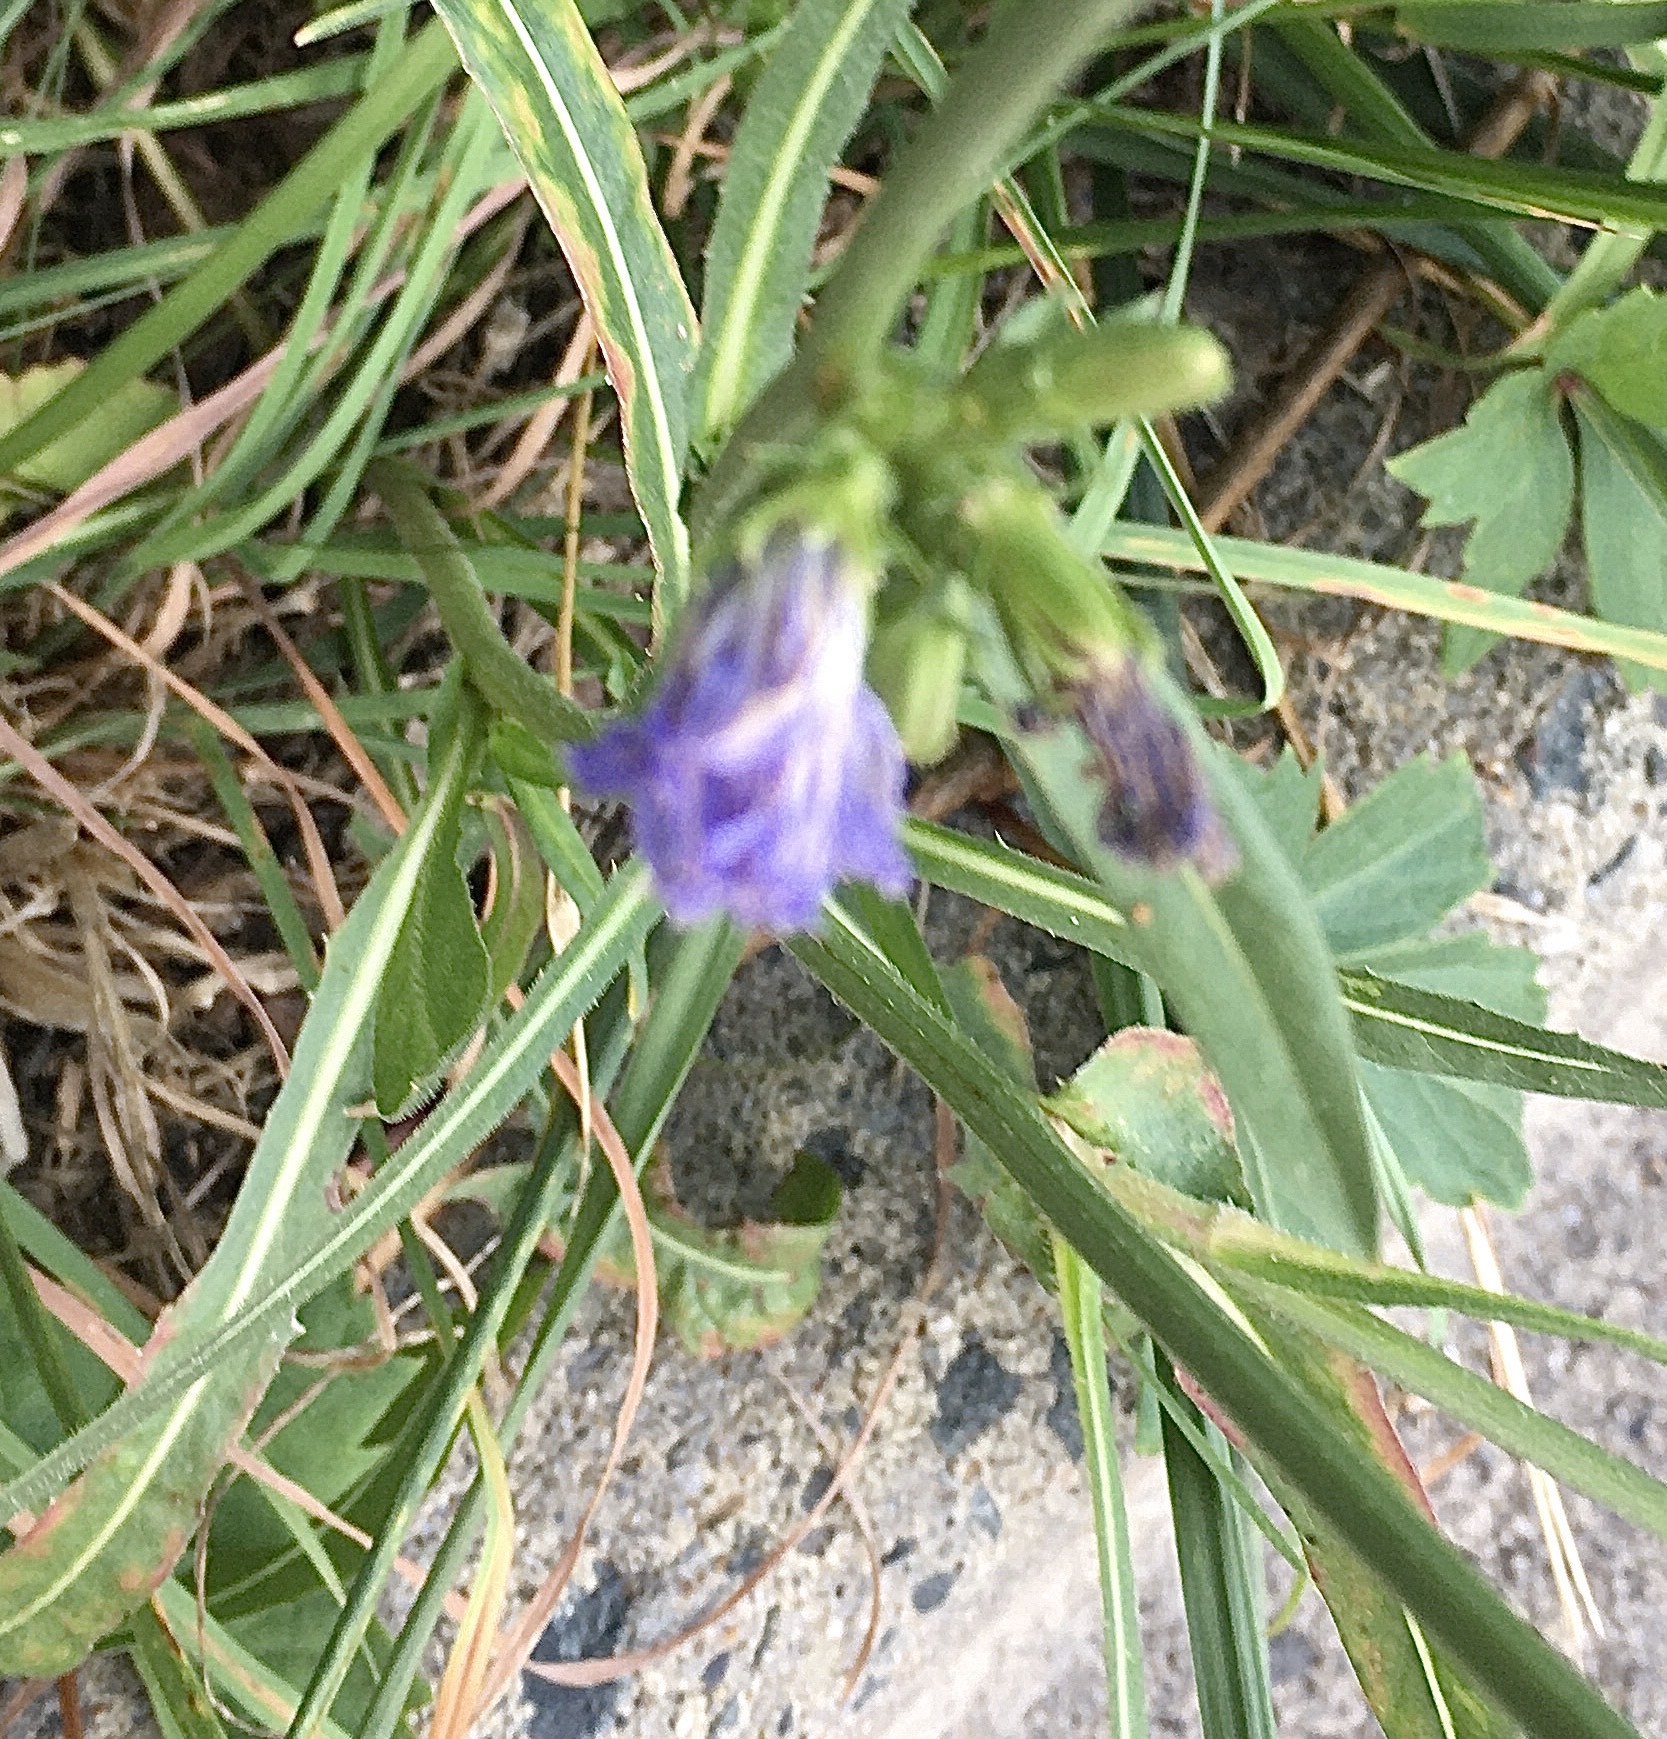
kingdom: Plantae
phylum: Tracheophyta
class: Magnoliopsida
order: Asterales
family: Asteraceae
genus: Cichorium
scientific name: Cichorium intybus
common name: Chicory
